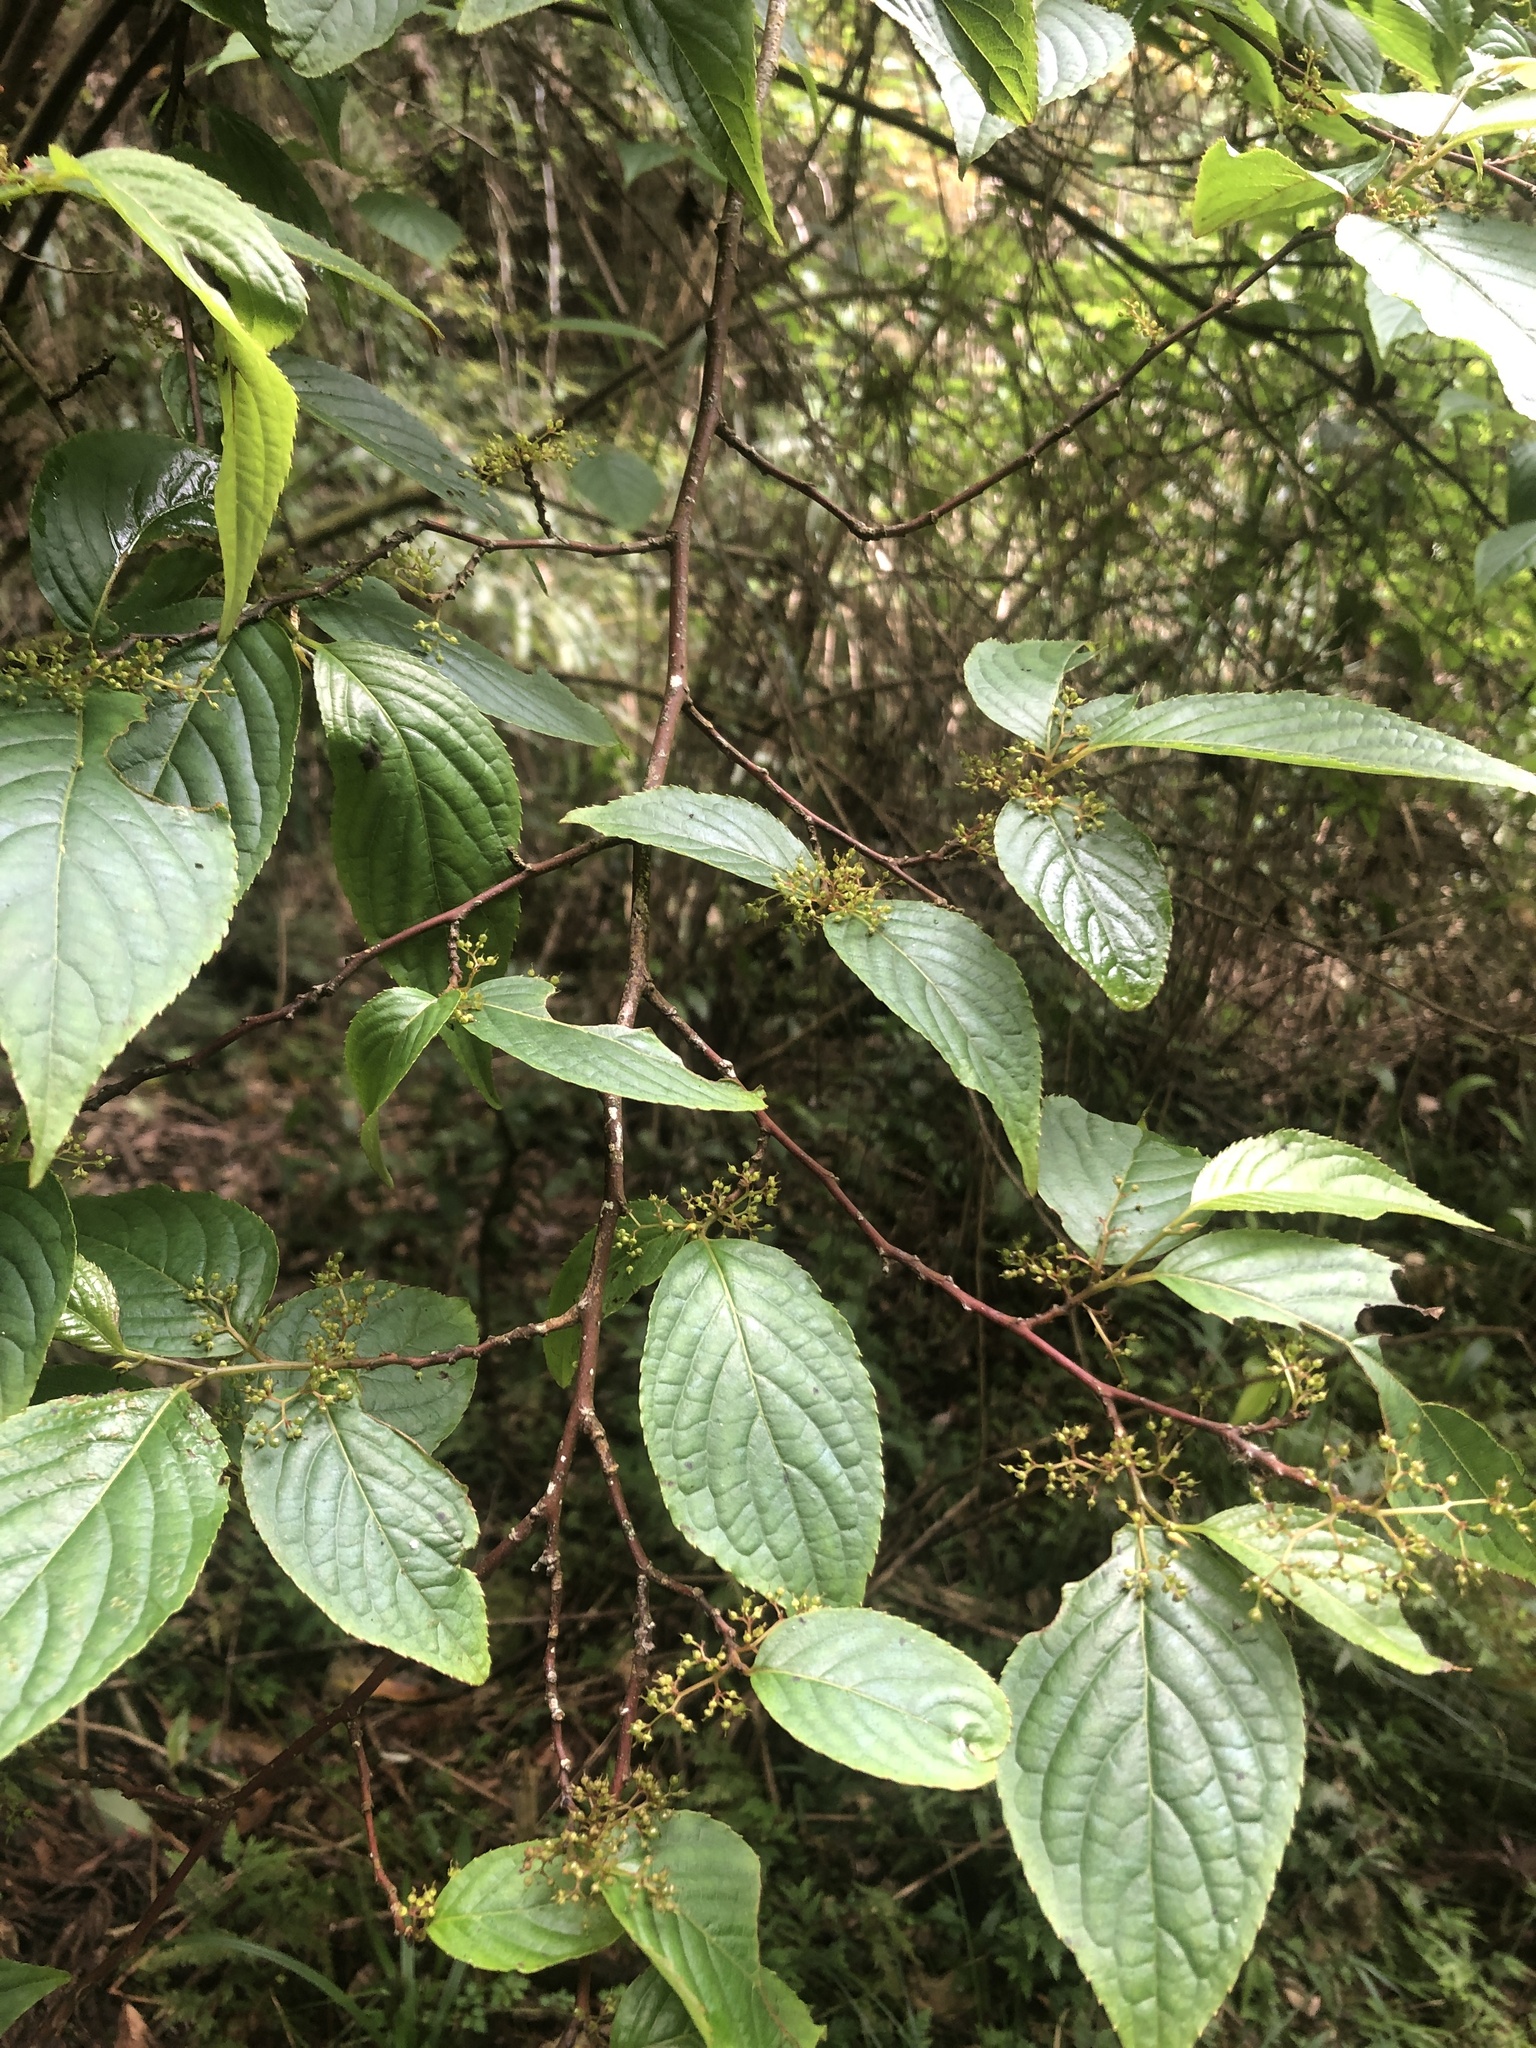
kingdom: Plantae
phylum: Tracheophyta
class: Magnoliopsida
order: Huerteales
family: Dipentodontaceae
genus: Perrottetia
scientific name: Perrottetia arisanensis
